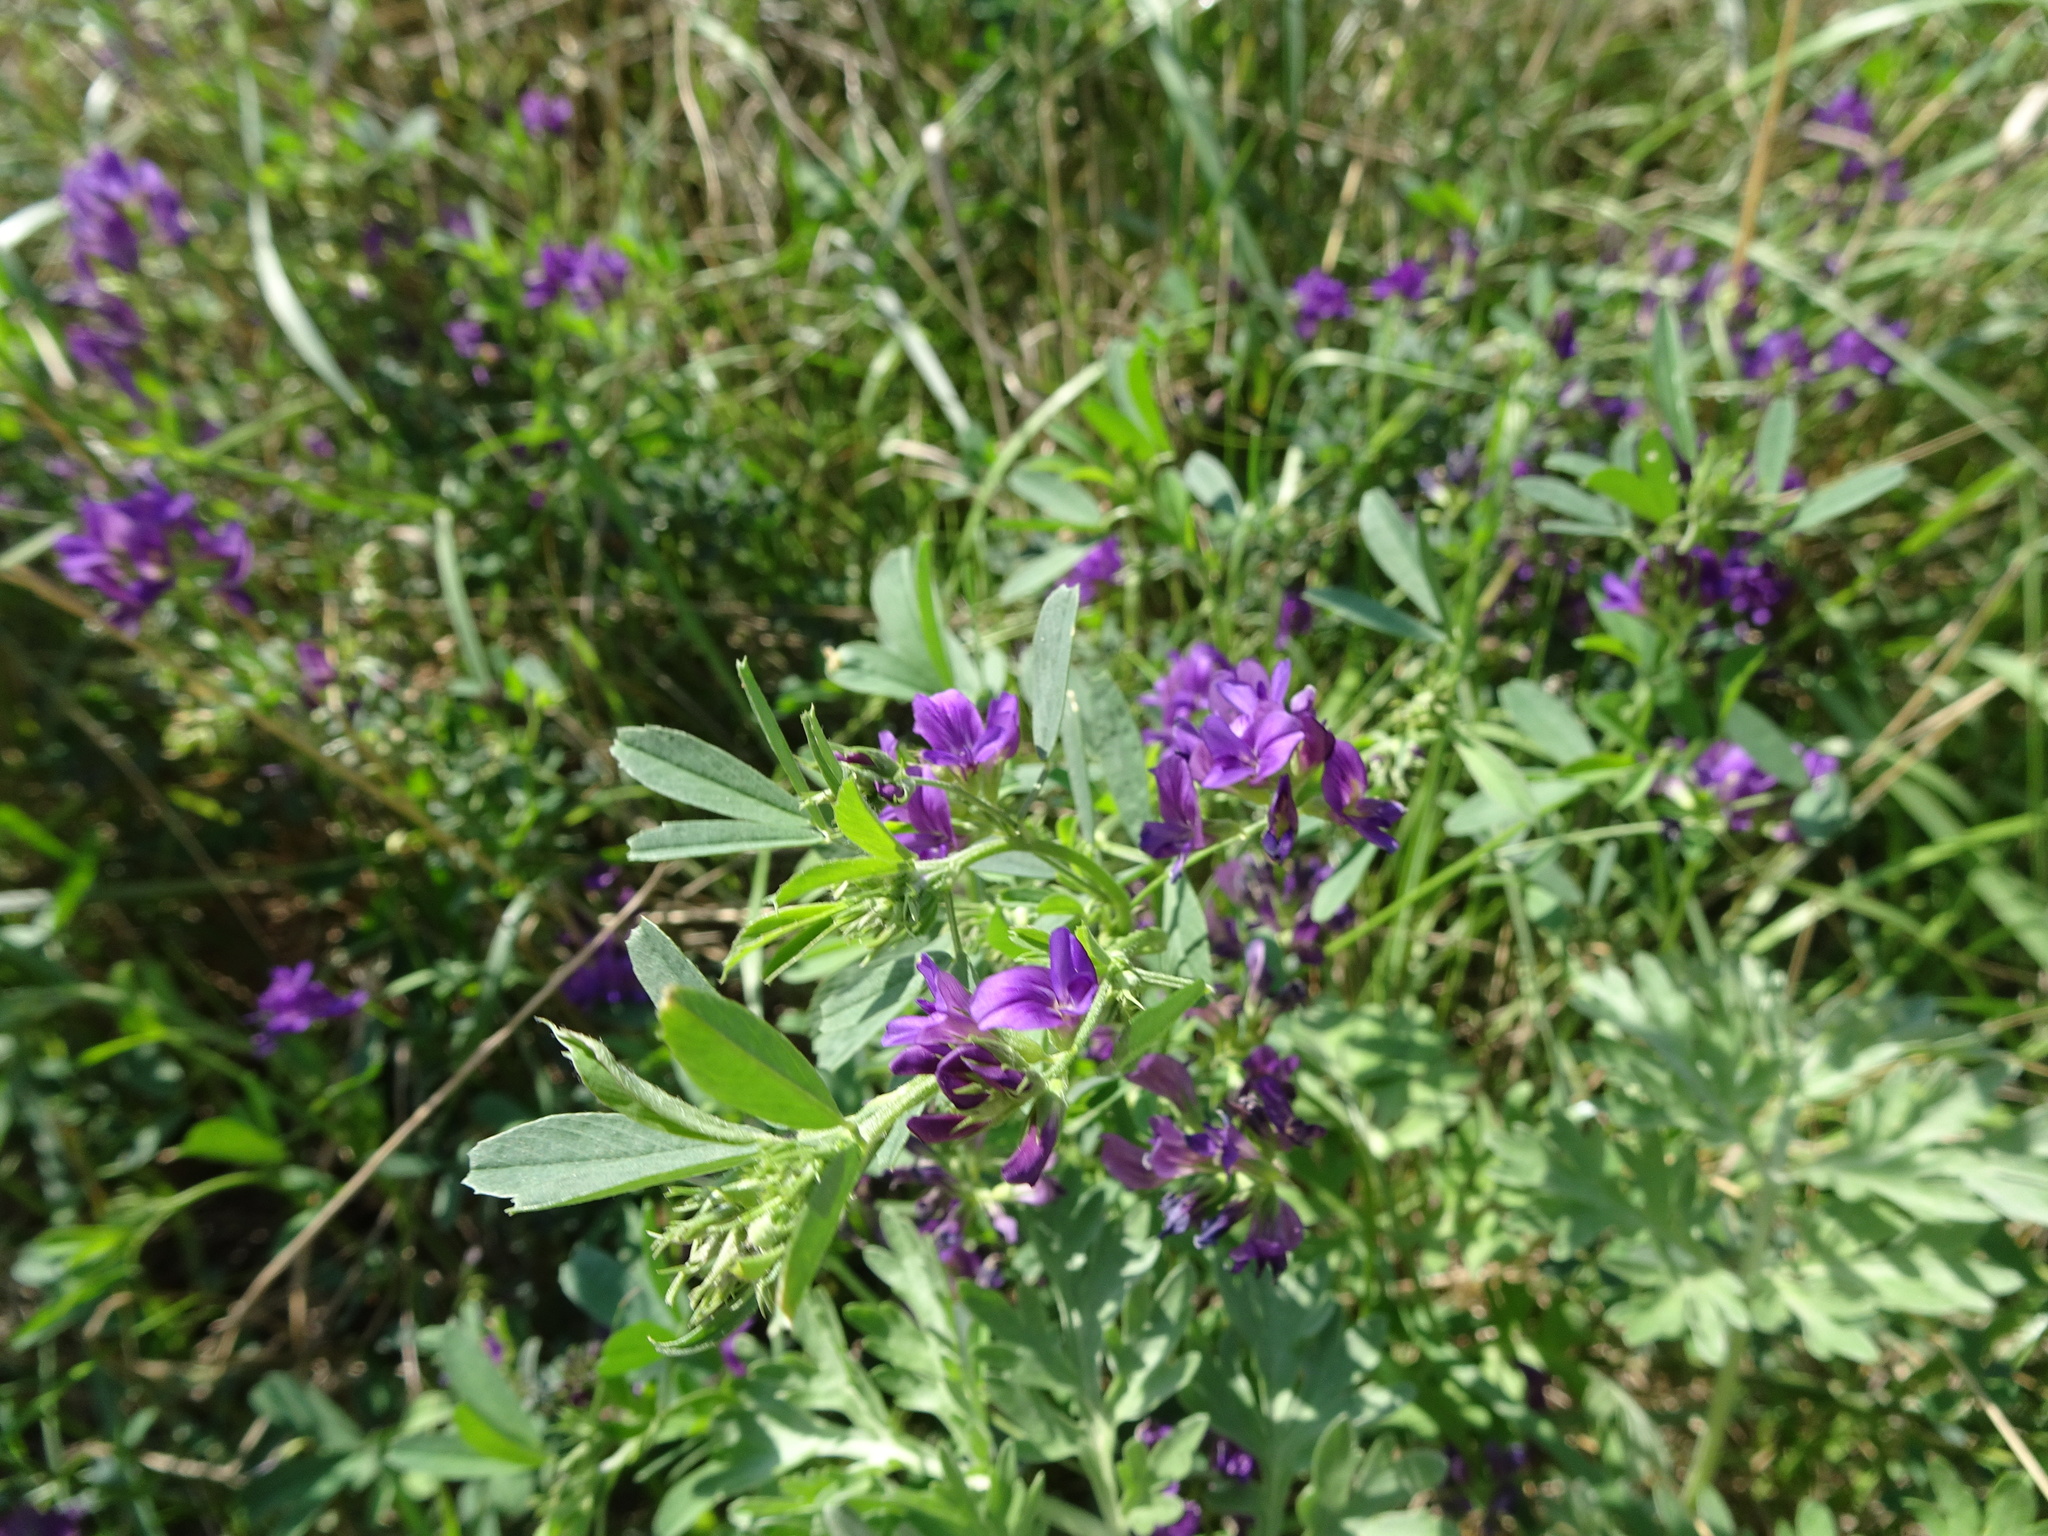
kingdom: Plantae
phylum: Tracheophyta
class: Magnoliopsida
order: Fabales
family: Fabaceae
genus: Medicago
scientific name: Medicago sativa
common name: Alfalfa
